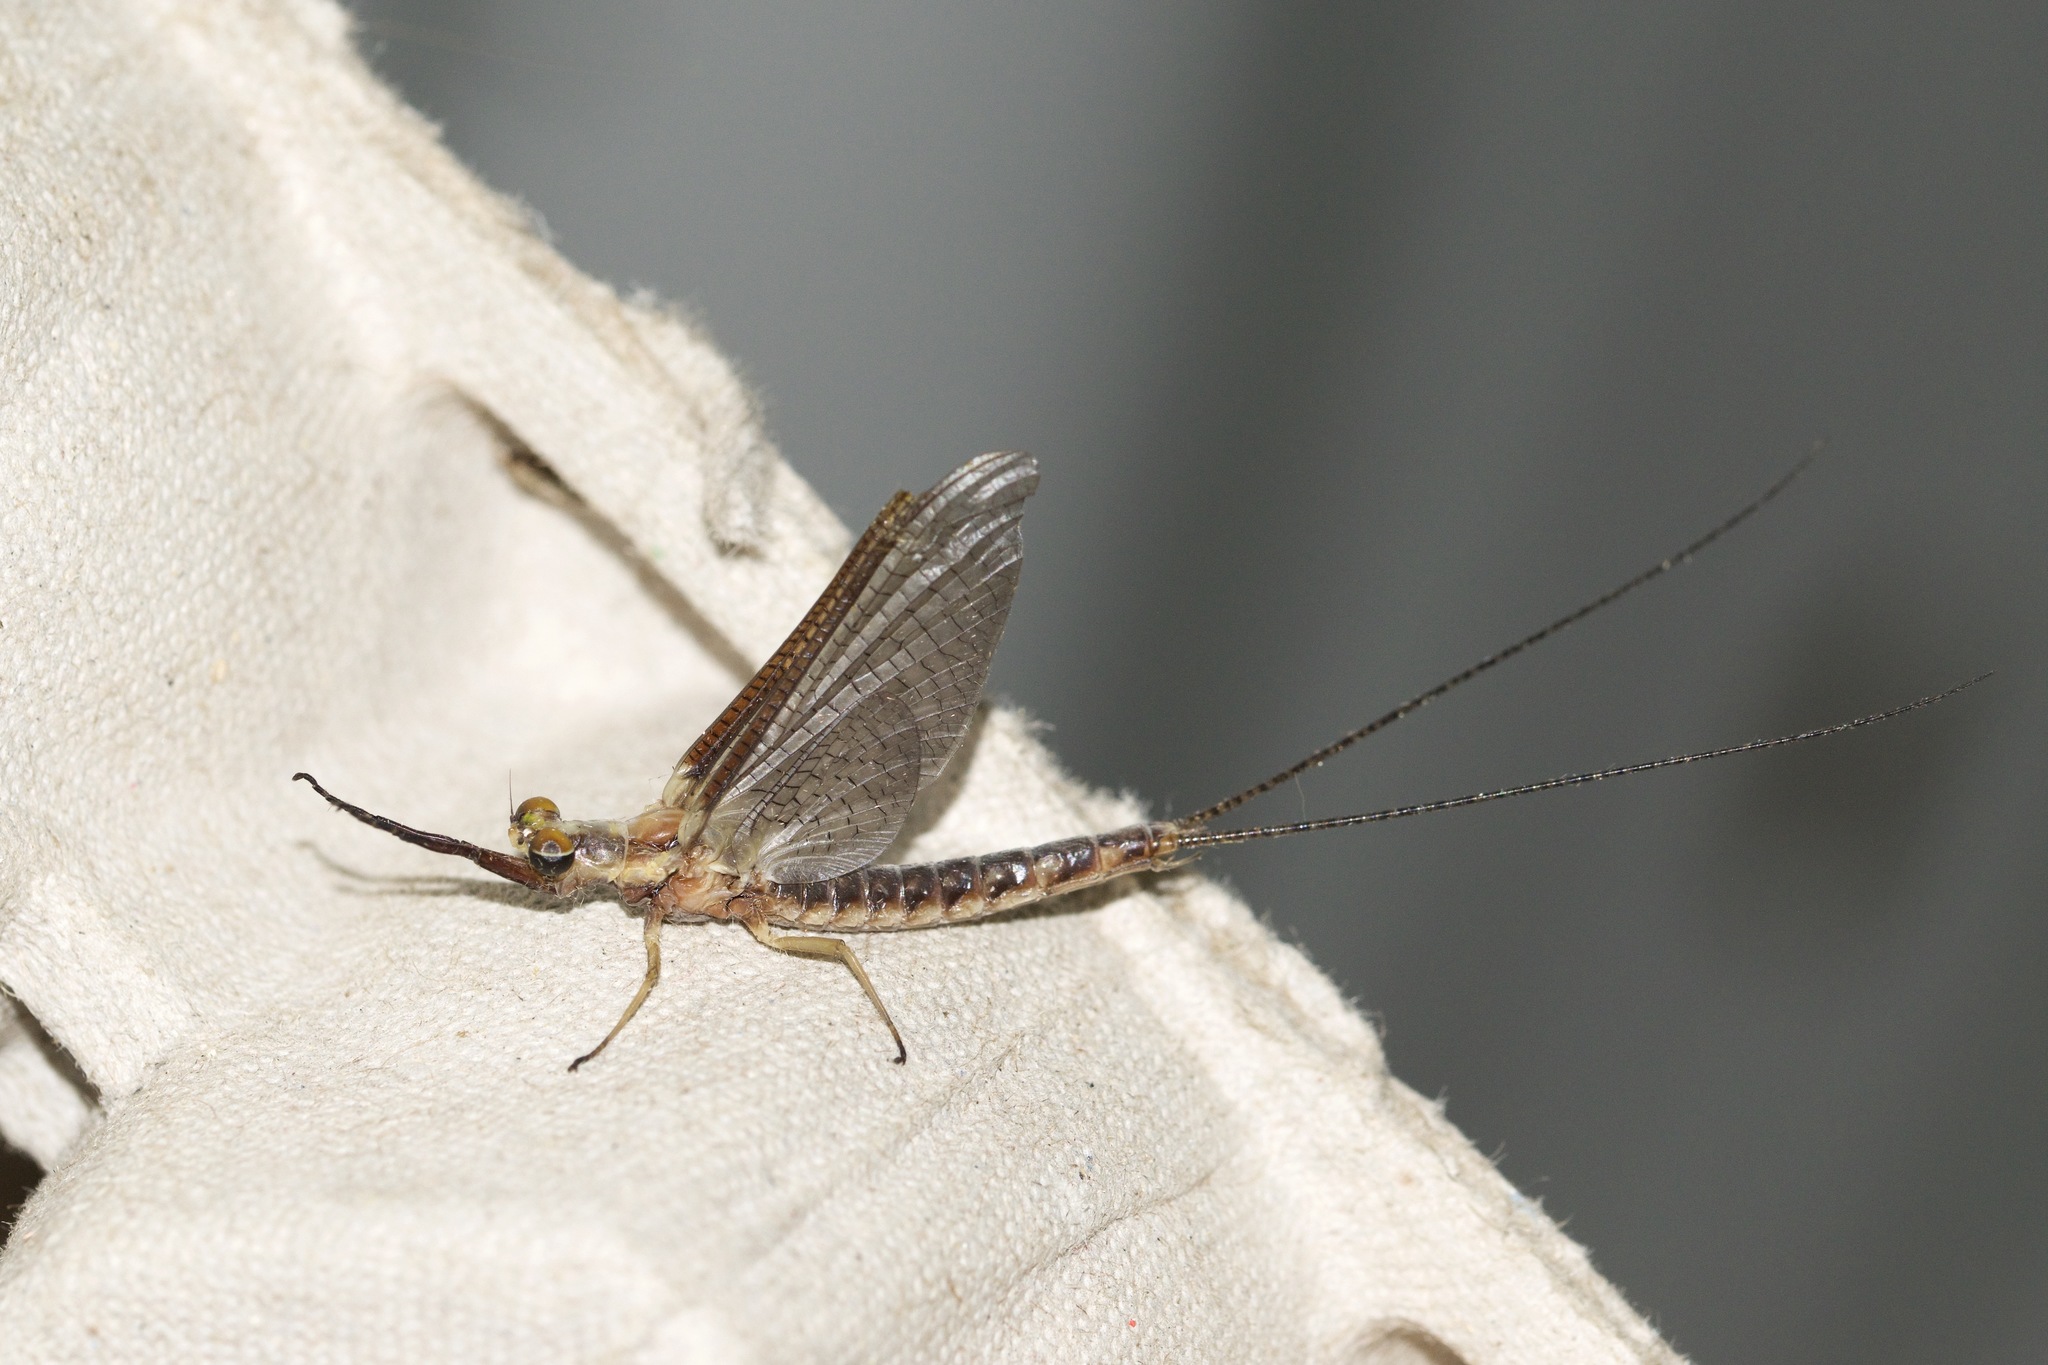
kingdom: Animalia
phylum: Arthropoda
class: Insecta
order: Ephemeroptera
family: Ephemeridae
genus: Hexagenia
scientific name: Hexagenia limbata
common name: Giant mayfly
